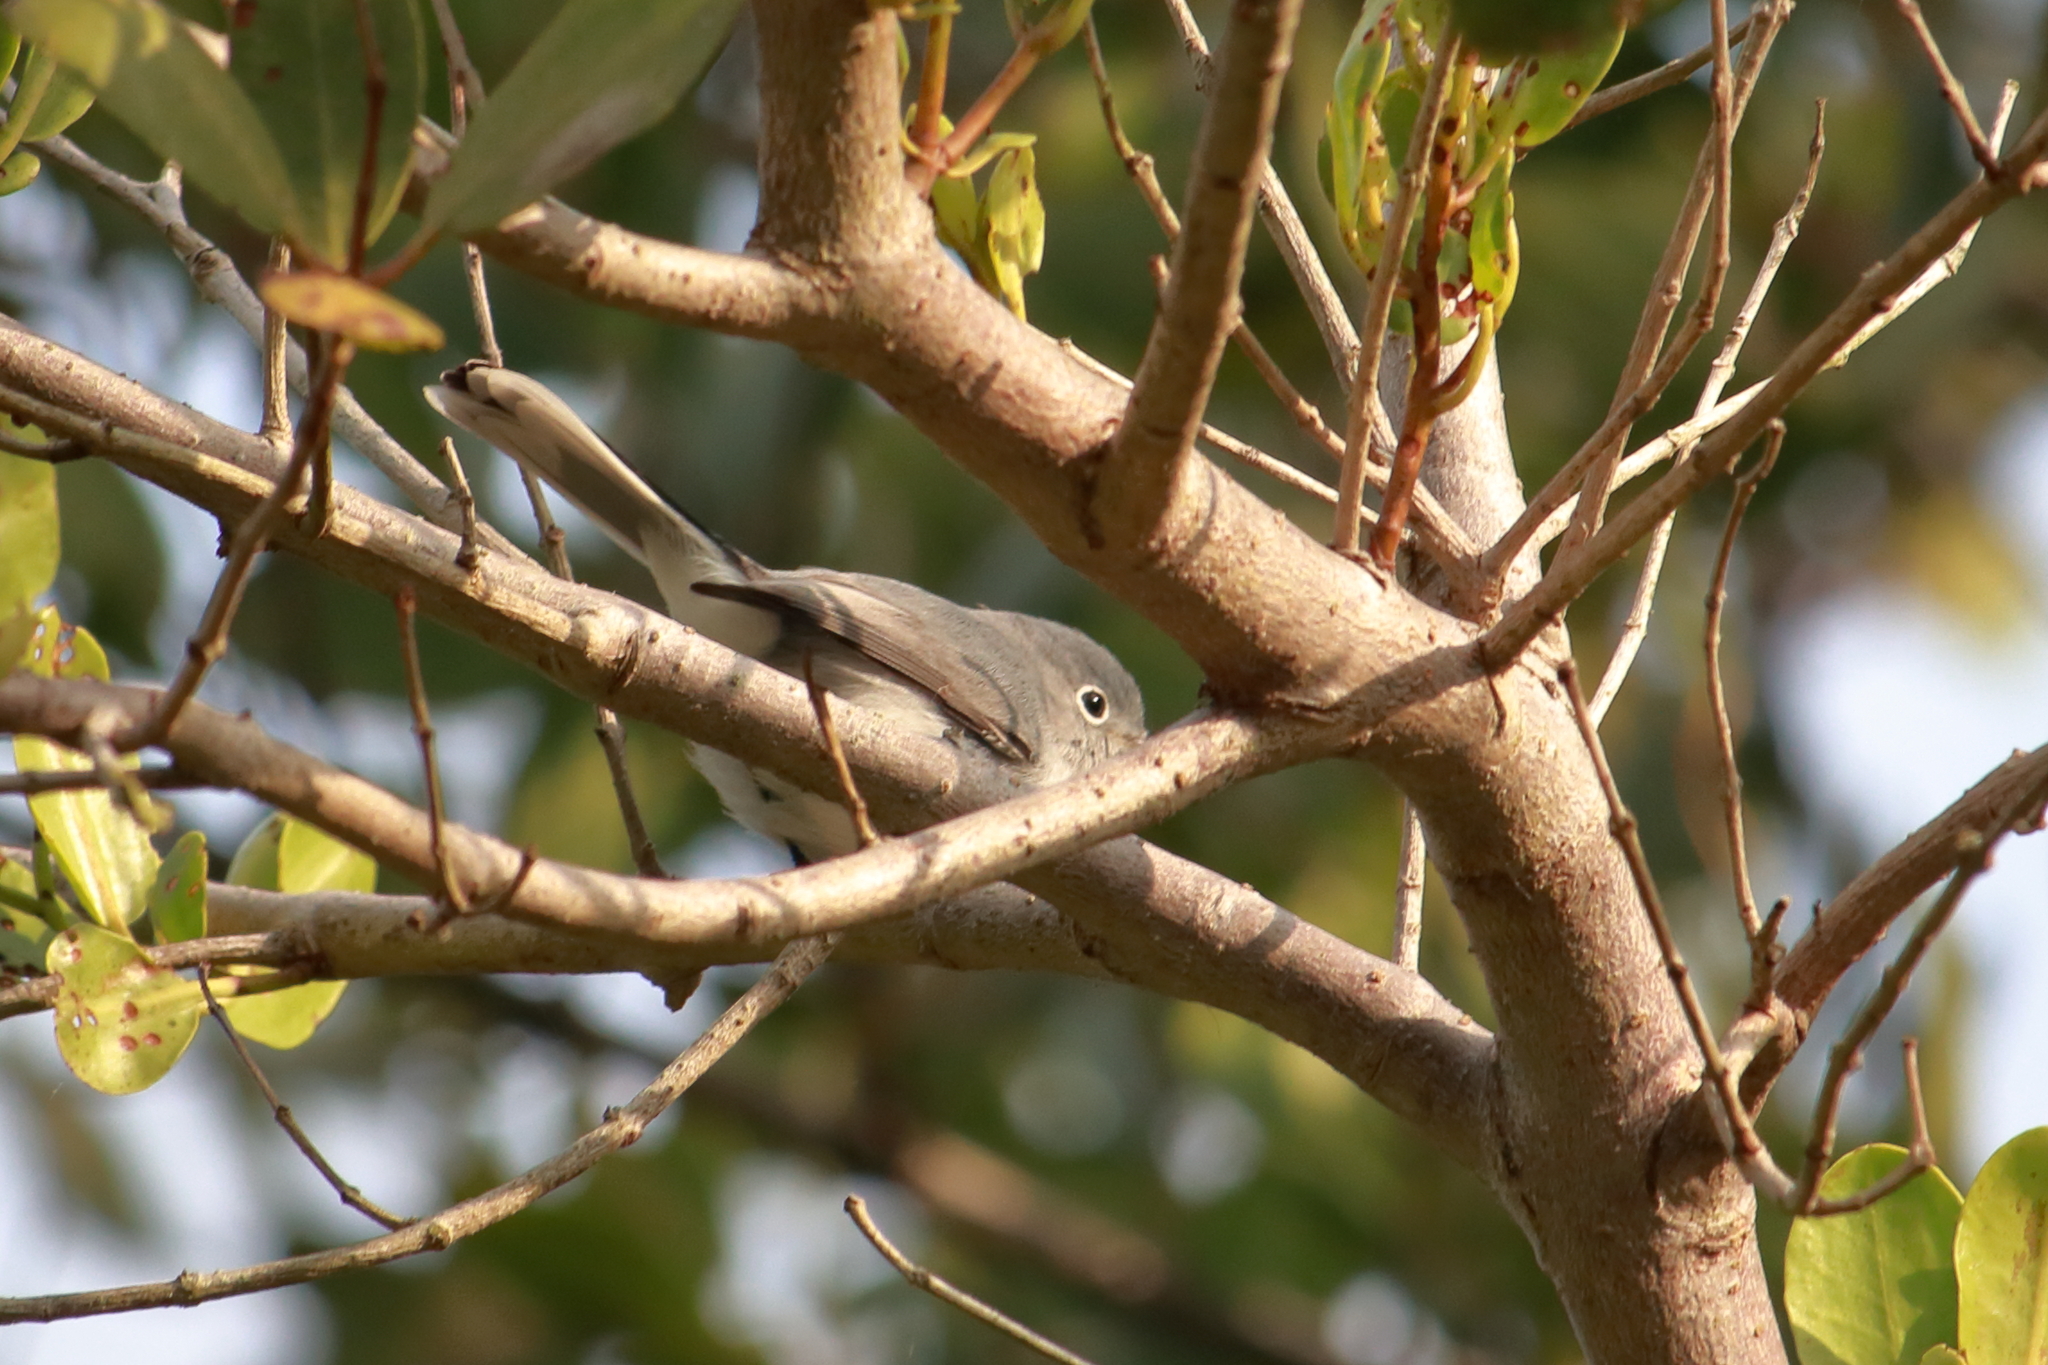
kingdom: Animalia
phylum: Chordata
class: Aves
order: Passeriformes
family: Polioptilidae
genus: Polioptila
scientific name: Polioptila caerulea
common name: Blue-gray gnatcatcher
